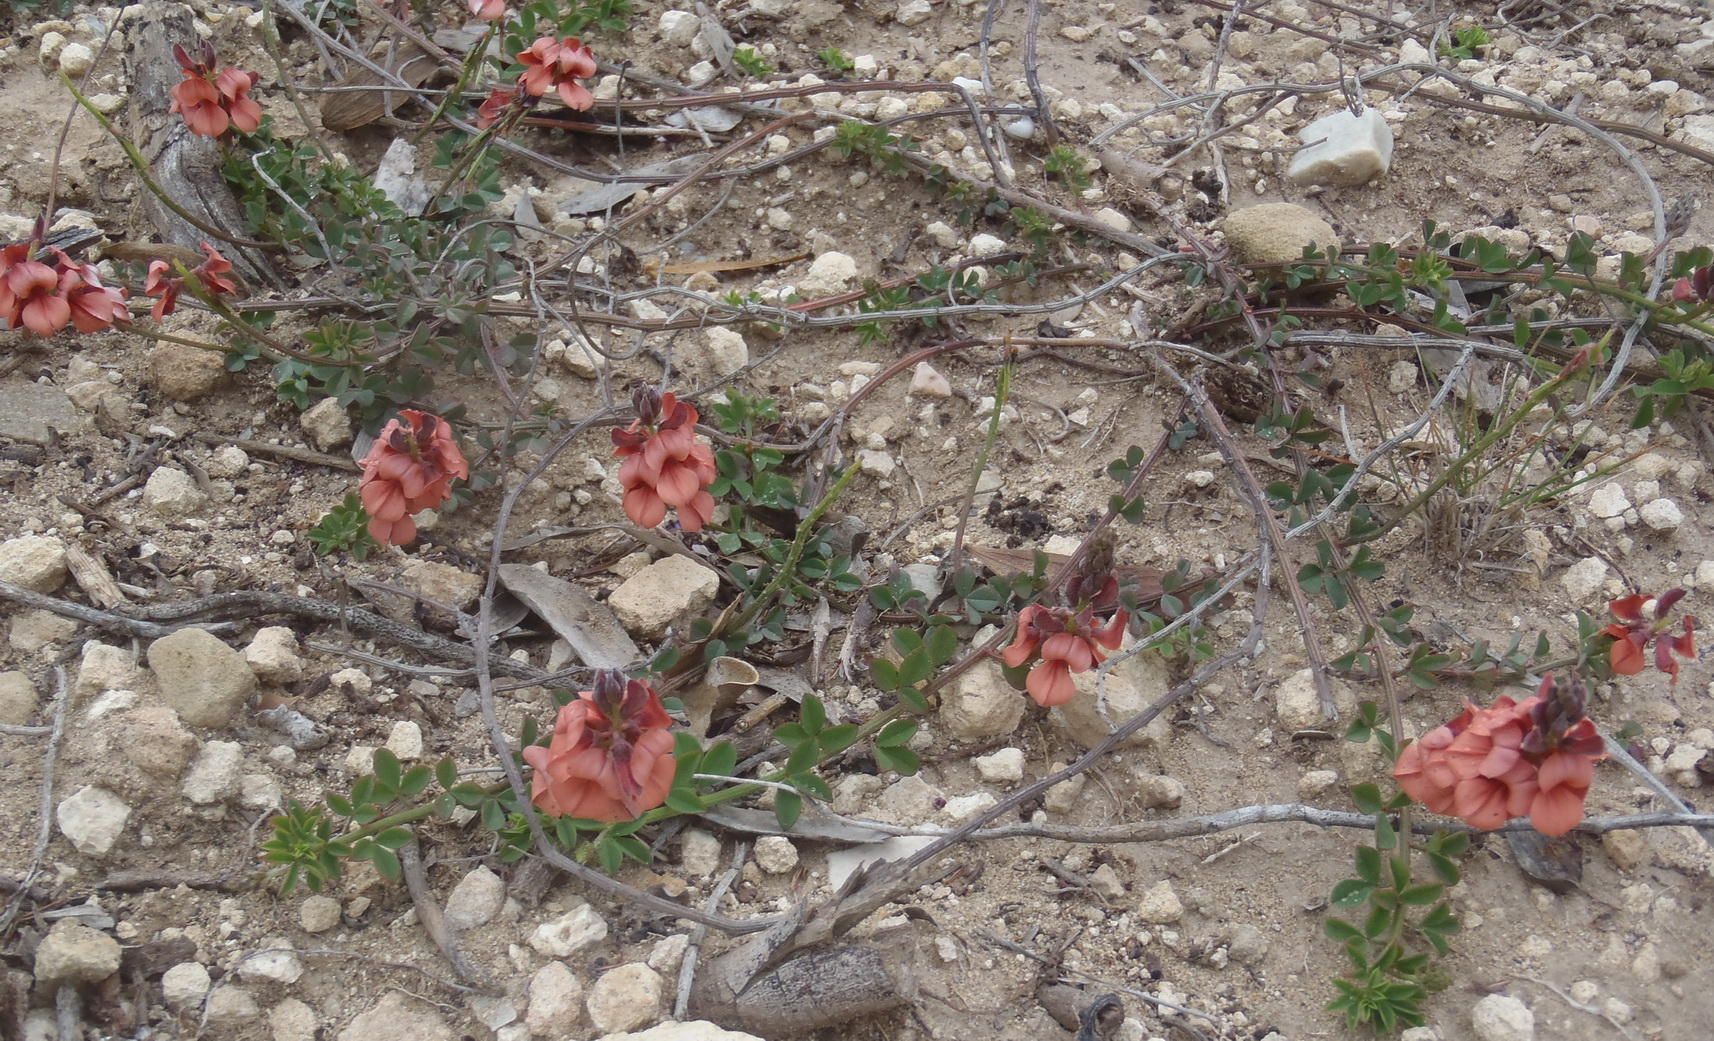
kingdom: Plantae
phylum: Tracheophyta
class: Magnoliopsida
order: Fabales
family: Fabaceae
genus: Indigofera
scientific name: Indigofera porrecta
